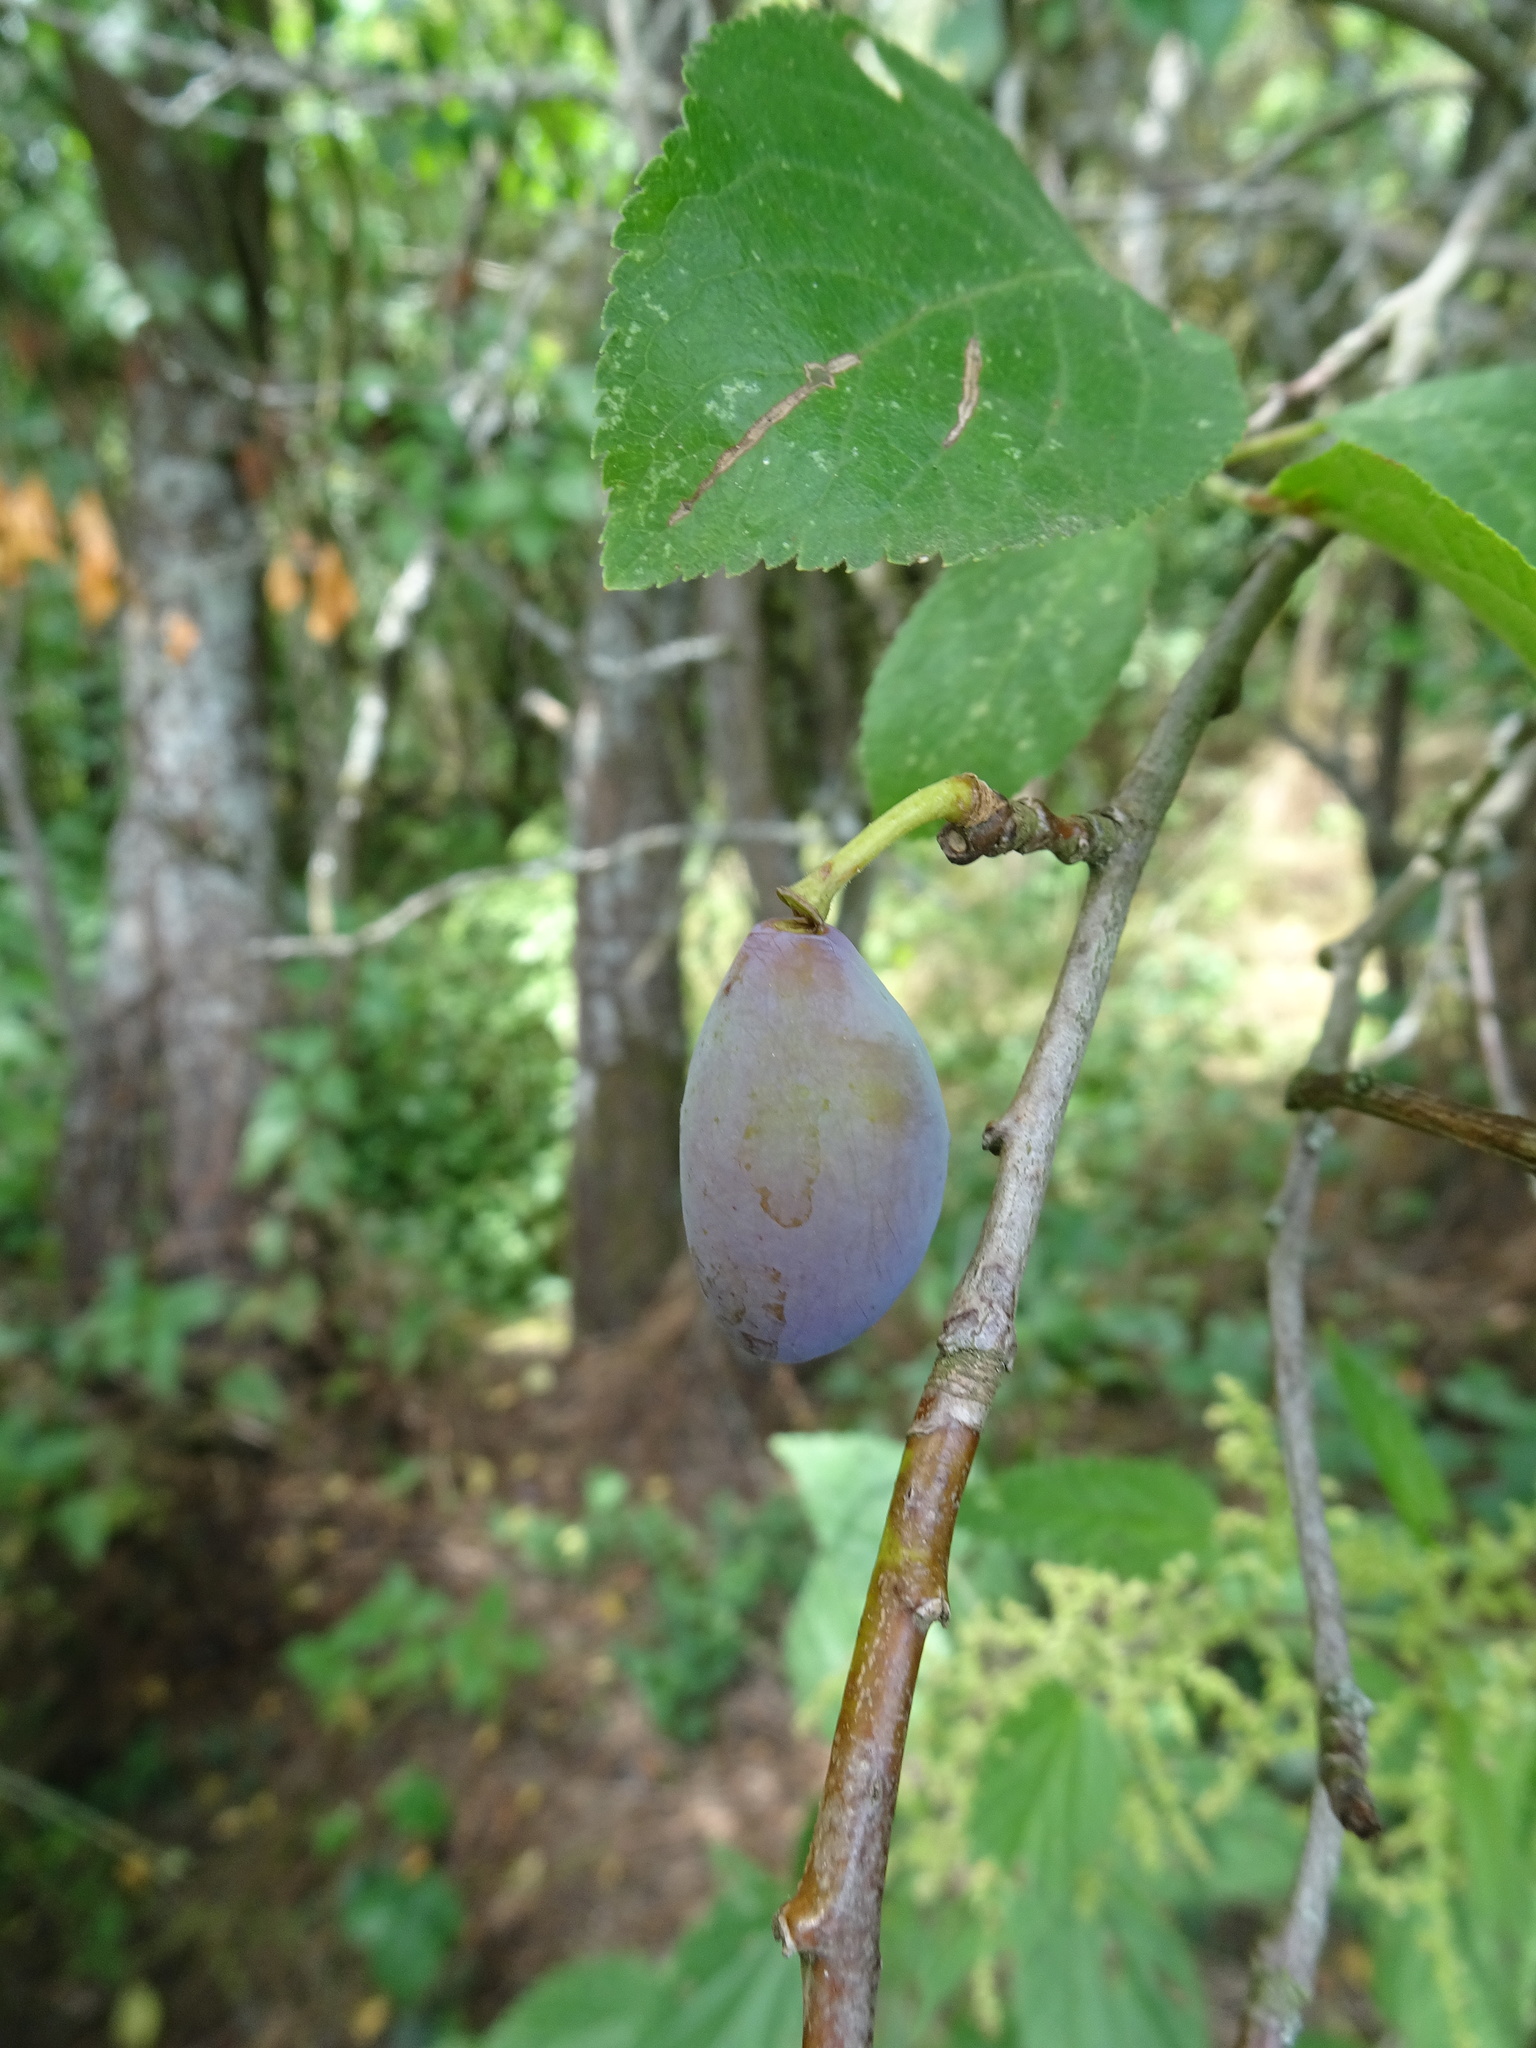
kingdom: Plantae
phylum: Tracheophyta
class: Magnoliopsida
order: Rosales
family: Rosaceae
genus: Prunus
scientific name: Prunus domestica
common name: Wild plum
